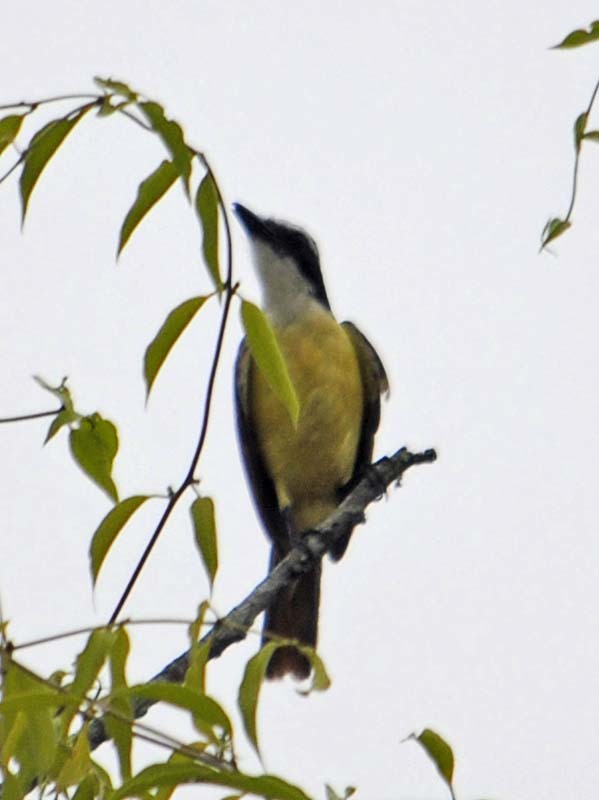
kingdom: Animalia
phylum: Chordata
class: Aves
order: Passeriformes
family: Tyrannidae
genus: Pitangus
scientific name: Pitangus sulphuratus
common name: Great kiskadee
